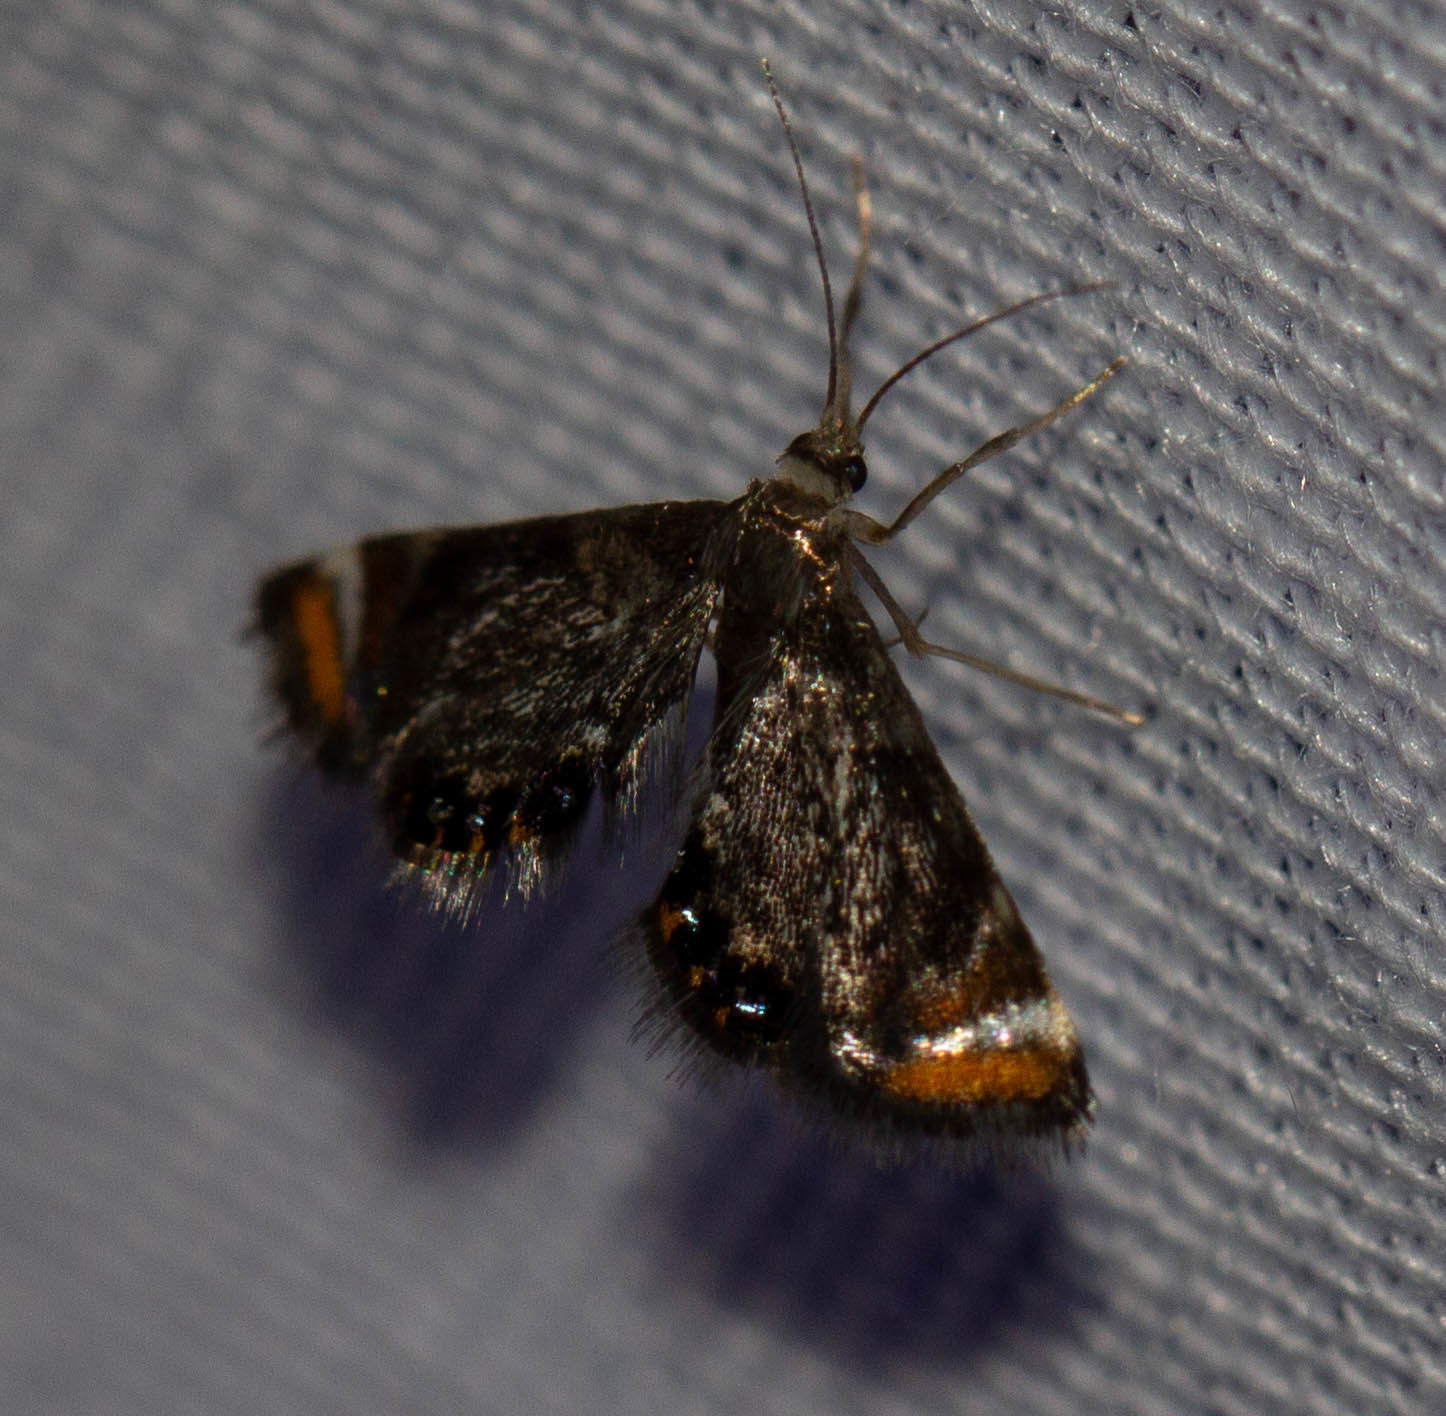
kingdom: Animalia
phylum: Arthropoda
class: Insecta
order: Lepidoptera
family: Crambidae
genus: Chrysendeton
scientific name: Chrysendeton nigrescens
